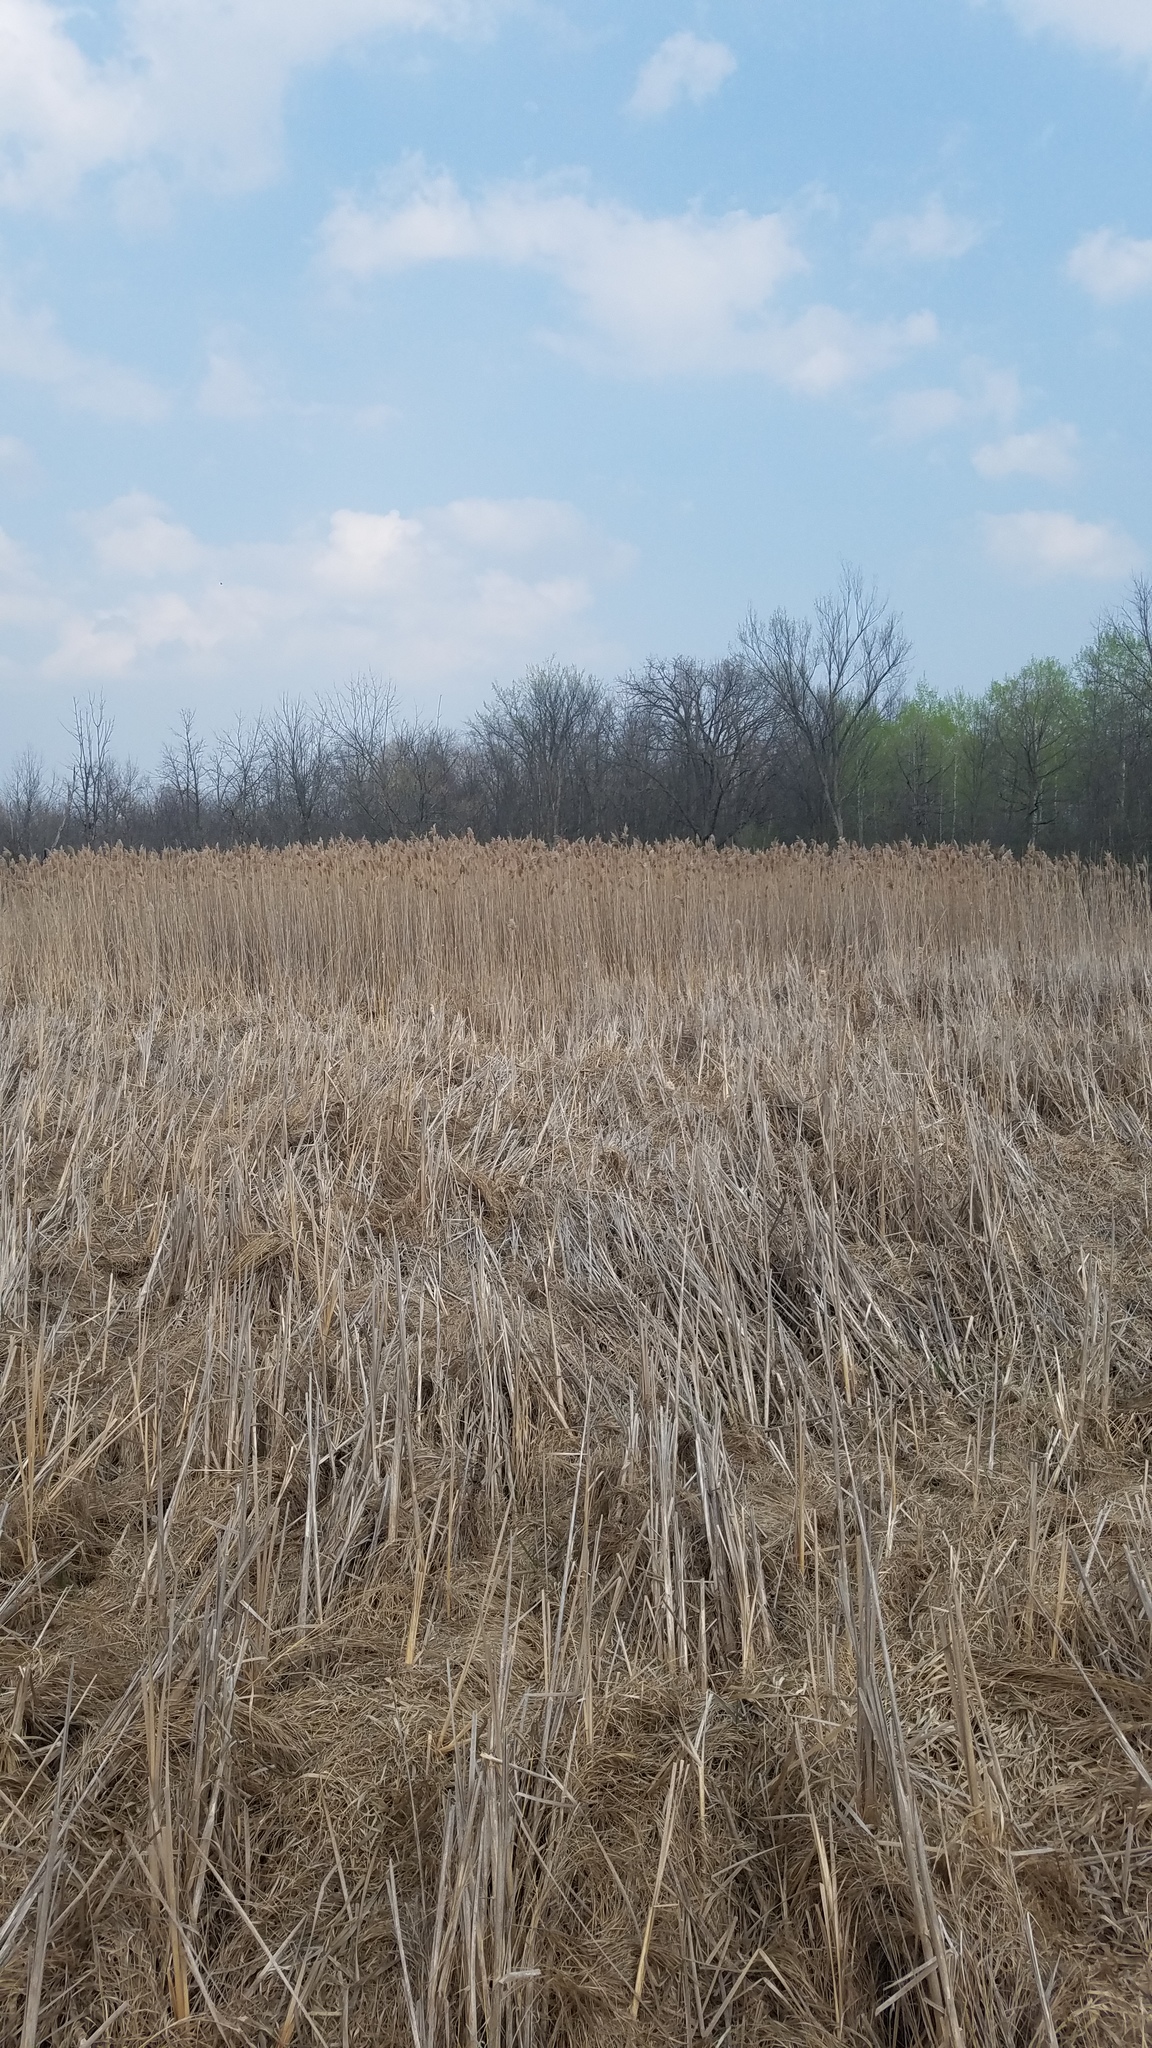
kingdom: Plantae
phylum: Tracheophyta
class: Liliopsida
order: Poales
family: Poaceae
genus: Phragmites
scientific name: Phragmites australis
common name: Common reed
